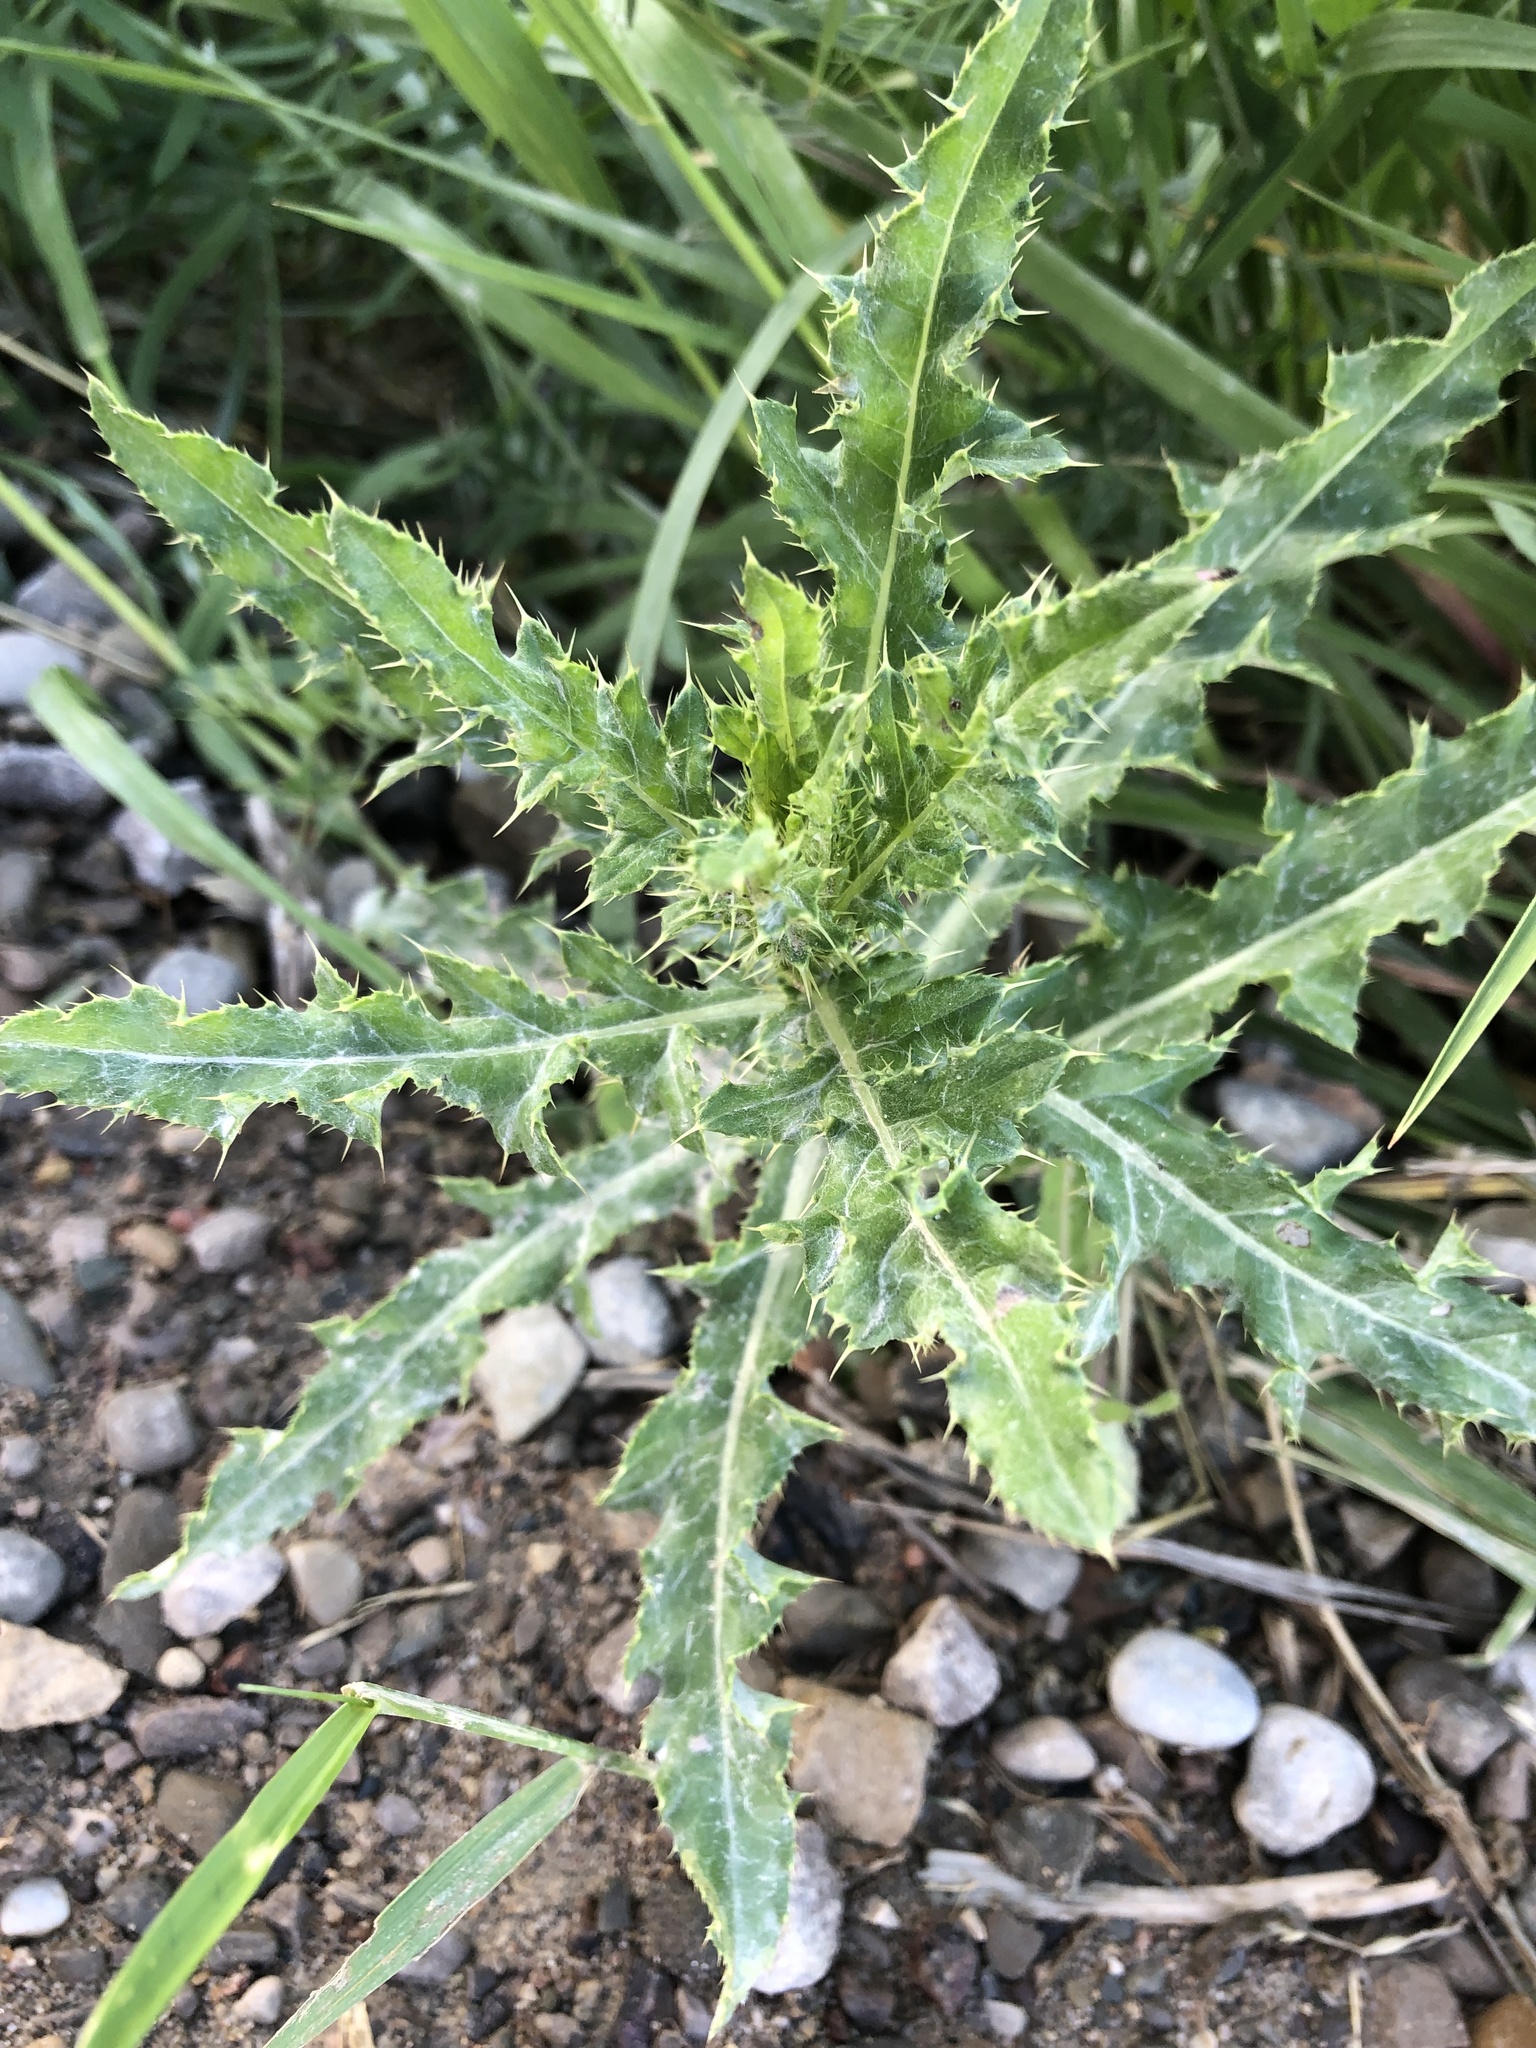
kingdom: Plantae
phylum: Tracheophyta
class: Magnoliopsida
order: Asterales
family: Asteraceae
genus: Cirsium
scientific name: Cirsium arvense
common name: Creeping thistle
